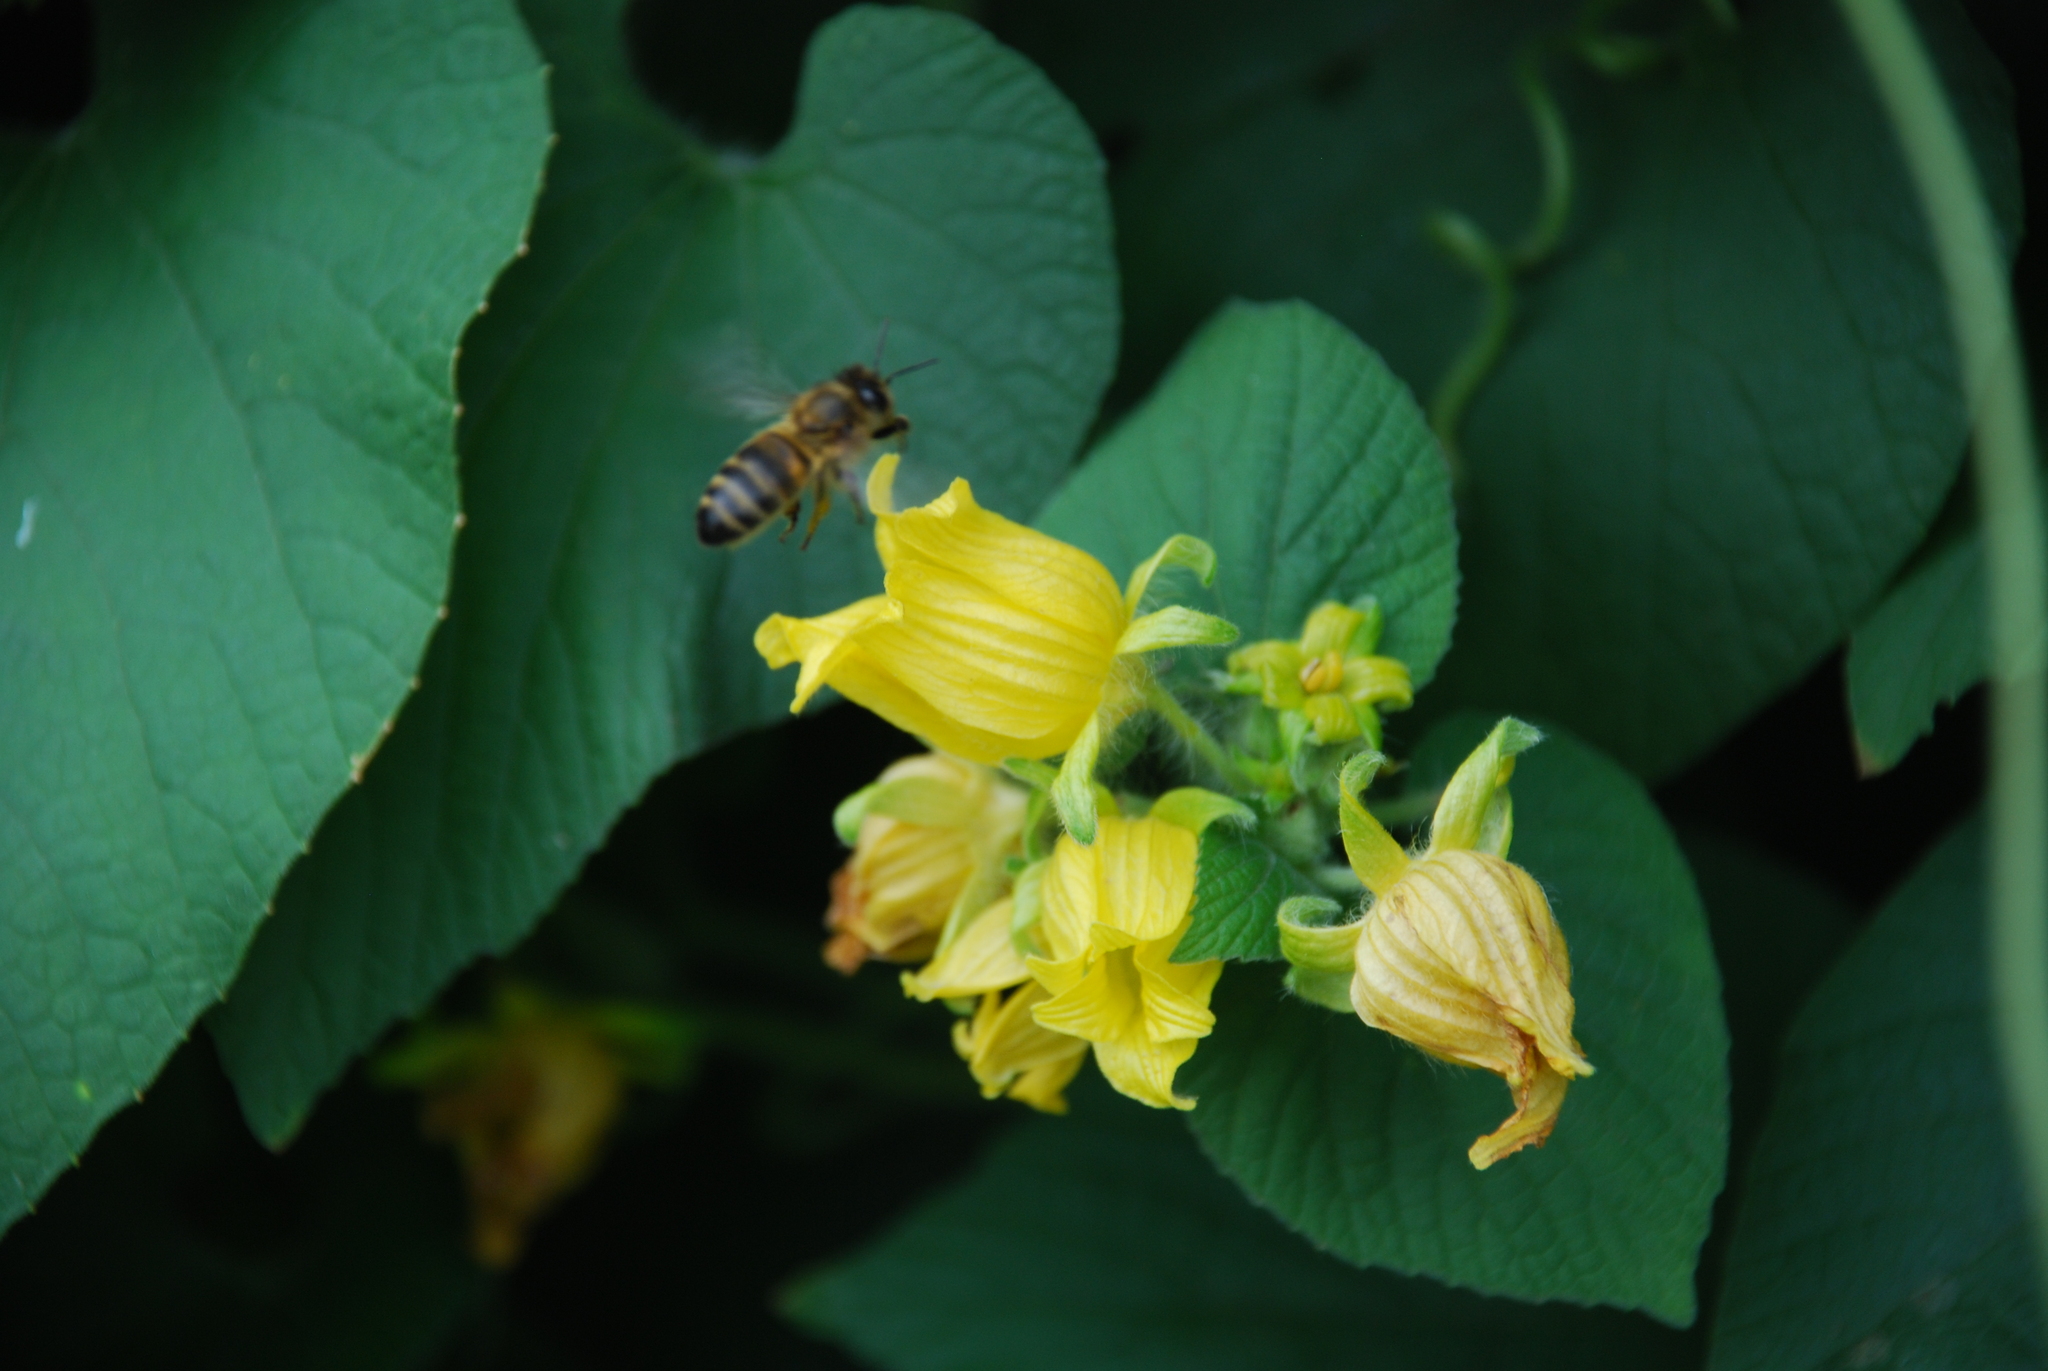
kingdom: Plantae
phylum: Tracheophyta
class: Magnoliopsida
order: Cucurbitales
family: Cucurbitaceae
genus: Thladiantha
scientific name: Thladiantha dubia
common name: Manchu tubergourd
